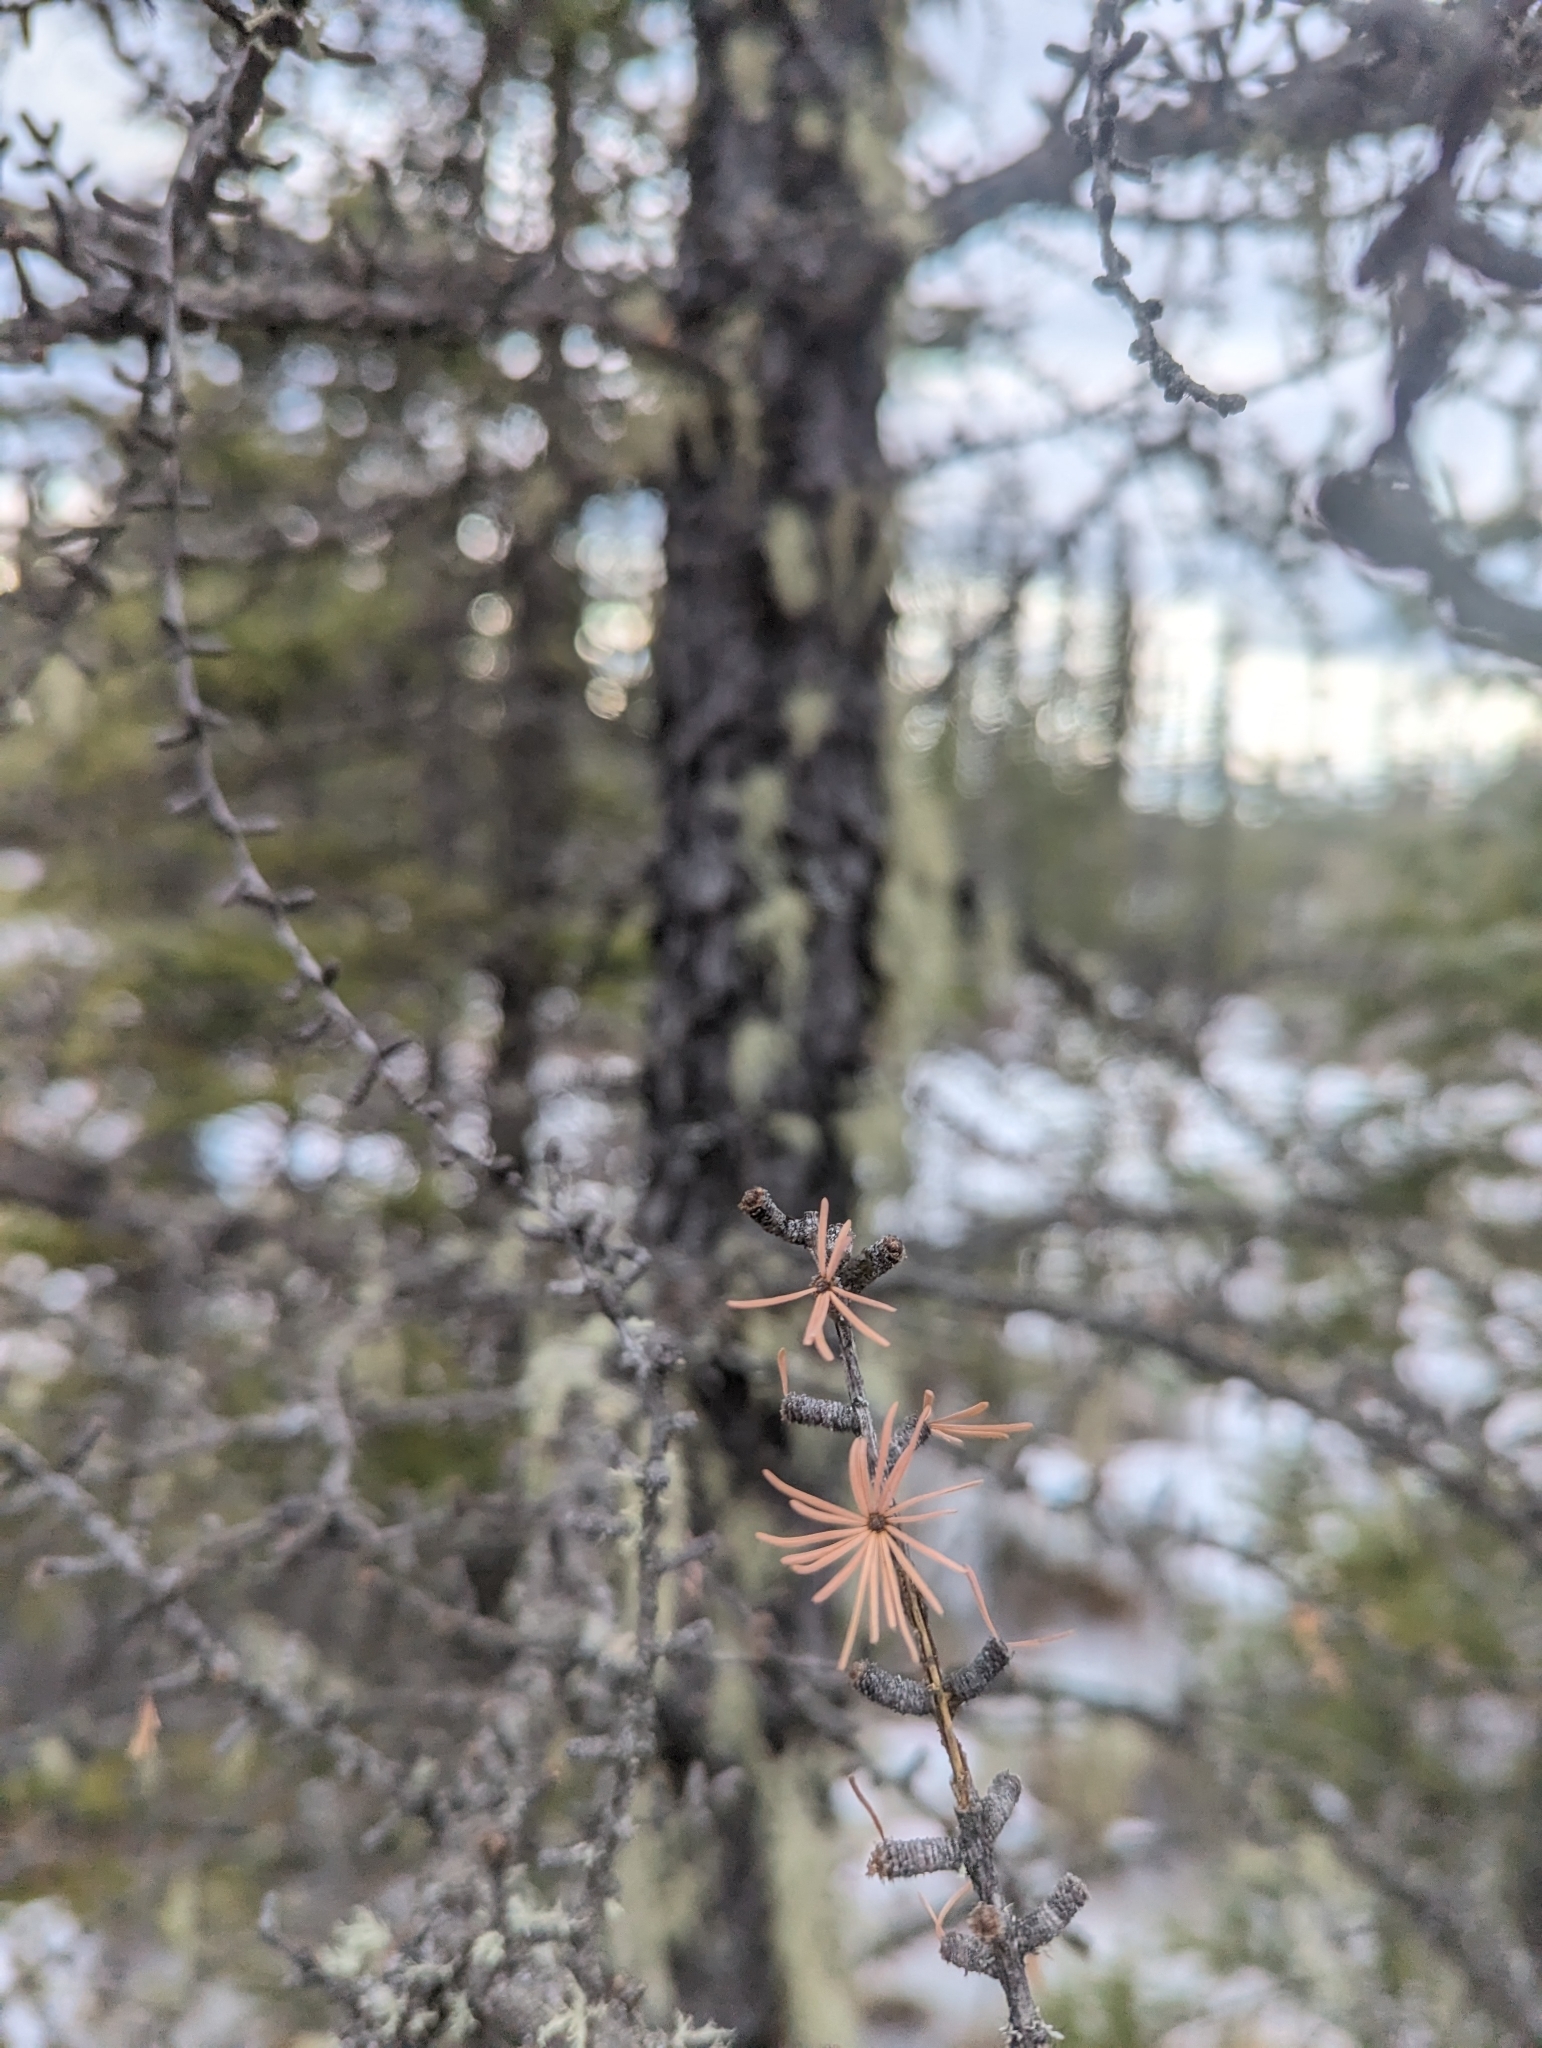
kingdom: Plantae
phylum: Tracheophyta
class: Pinopsida
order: Pinales
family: Pinaceae
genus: Larix
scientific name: Larix laricina
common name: American larch
